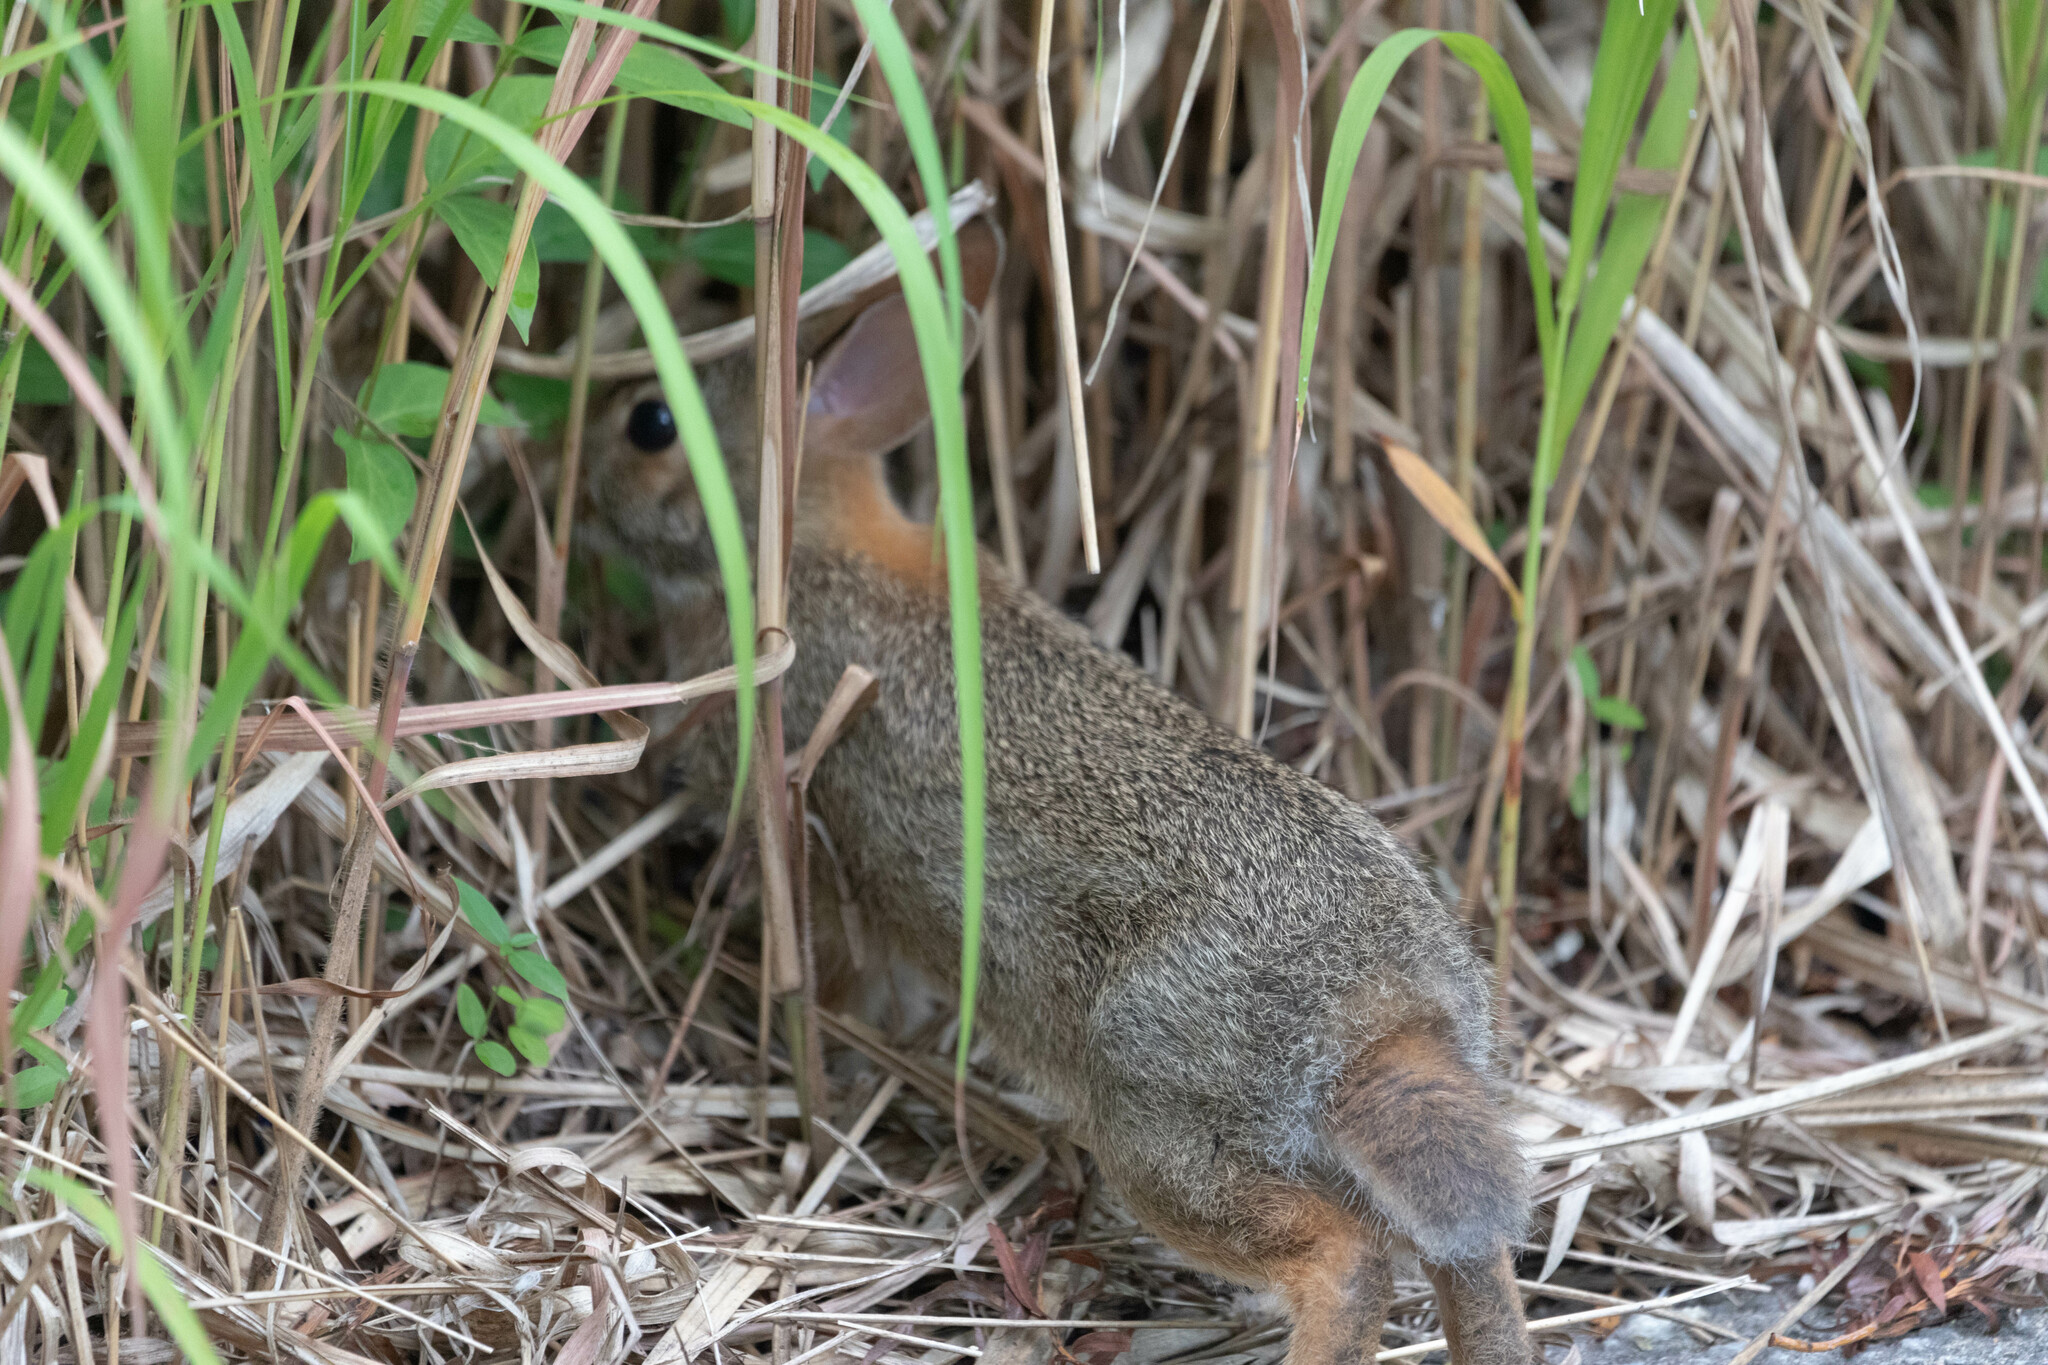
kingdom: Animalia
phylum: Chordata
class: Mammalia
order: Lagomorpha
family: Leporidae
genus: Sylvilagus
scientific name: Sylvilagus floridanus
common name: Eastern cottontail
